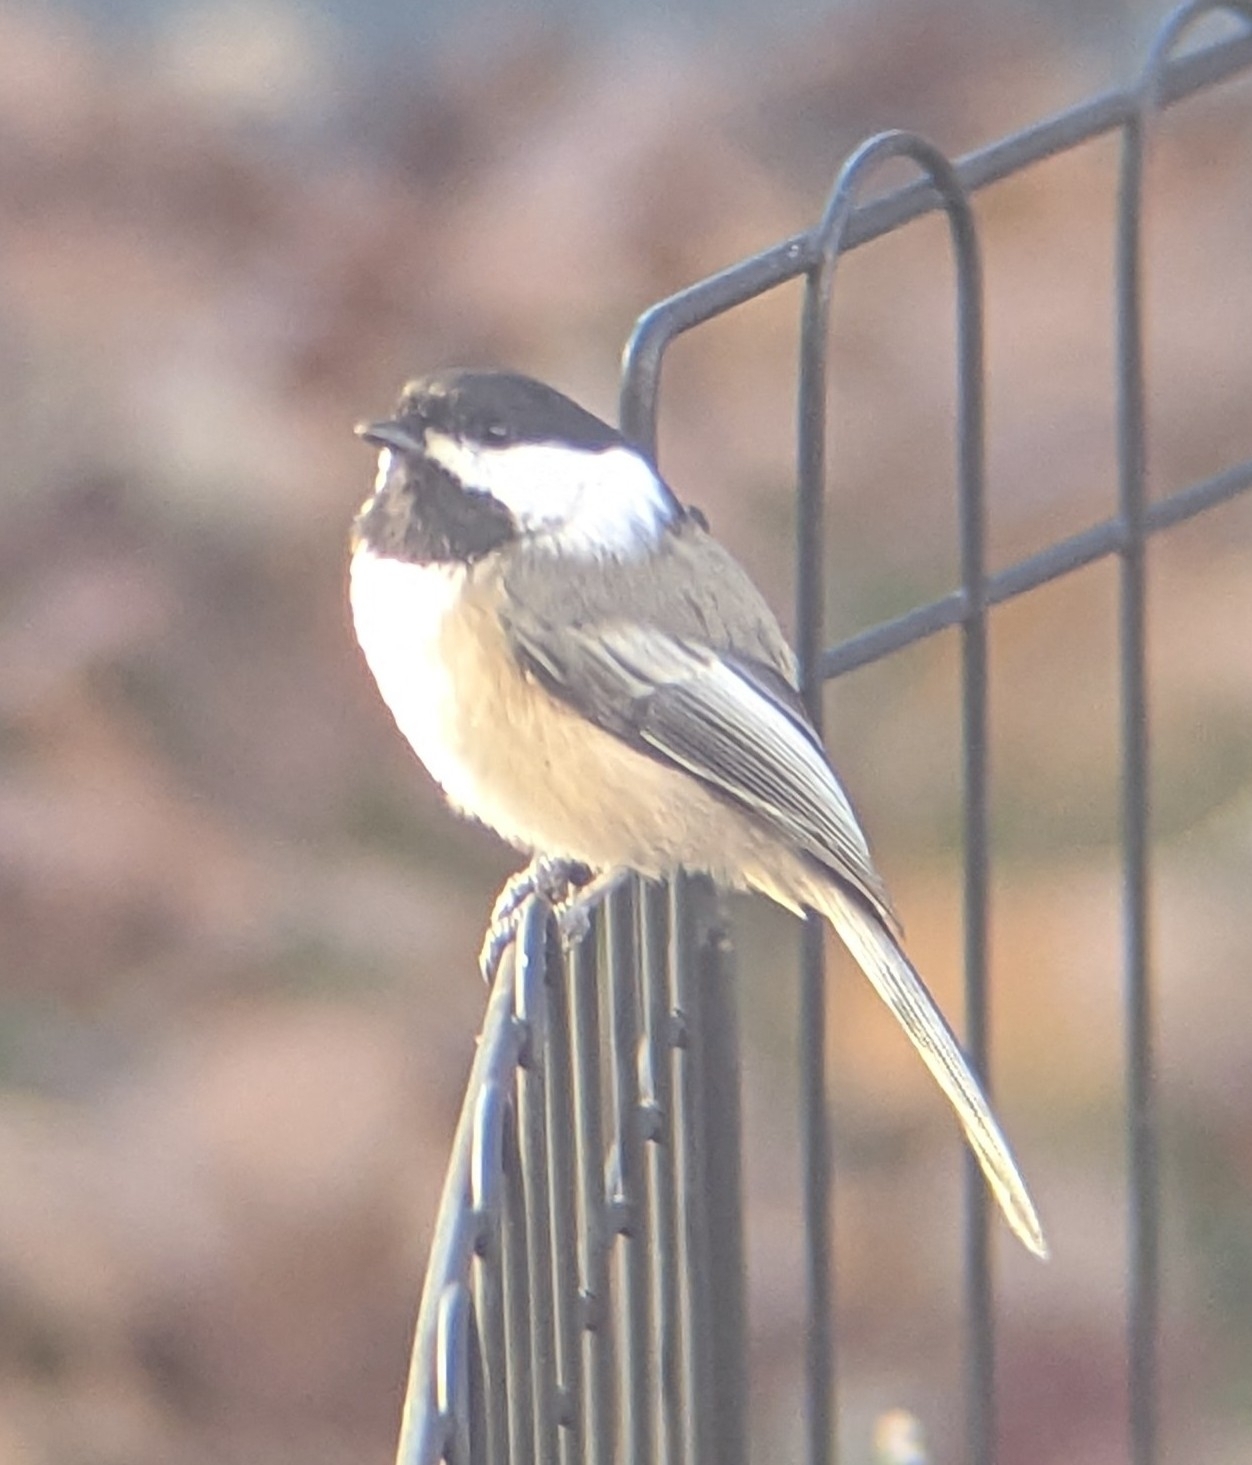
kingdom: Animalia
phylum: Chordata
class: Aves
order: Passeriformes
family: Paridae
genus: Poecile
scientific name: Poecile atricapillus
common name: Black-capped chickadee
